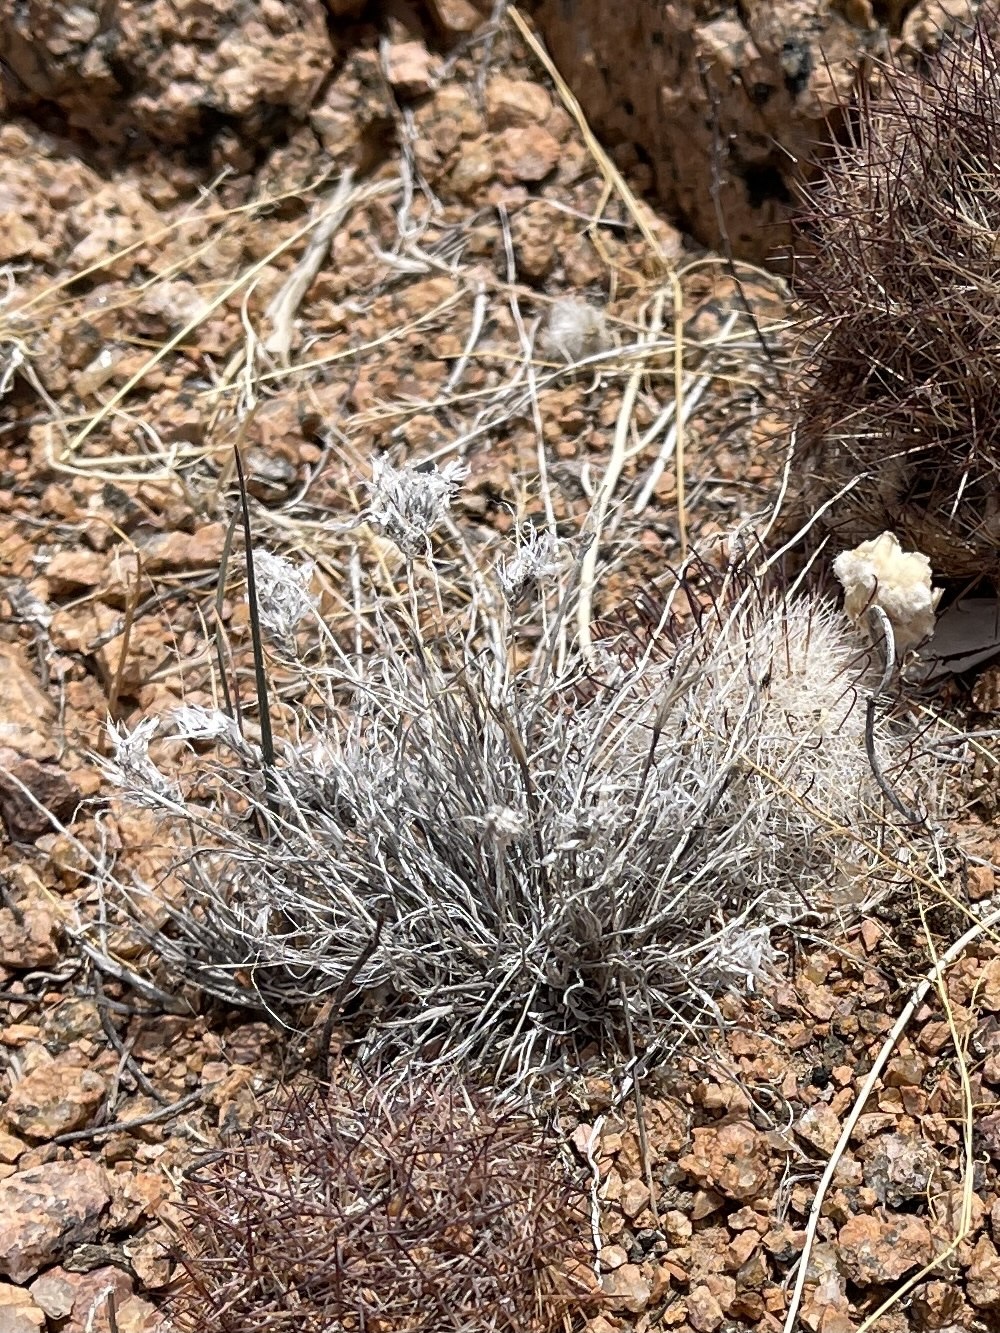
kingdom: Plantae
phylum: Tracheophyta
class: Liliopsida
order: Poales
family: Poaceae
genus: Dasyochloa
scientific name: Dasyochloa pulchella
